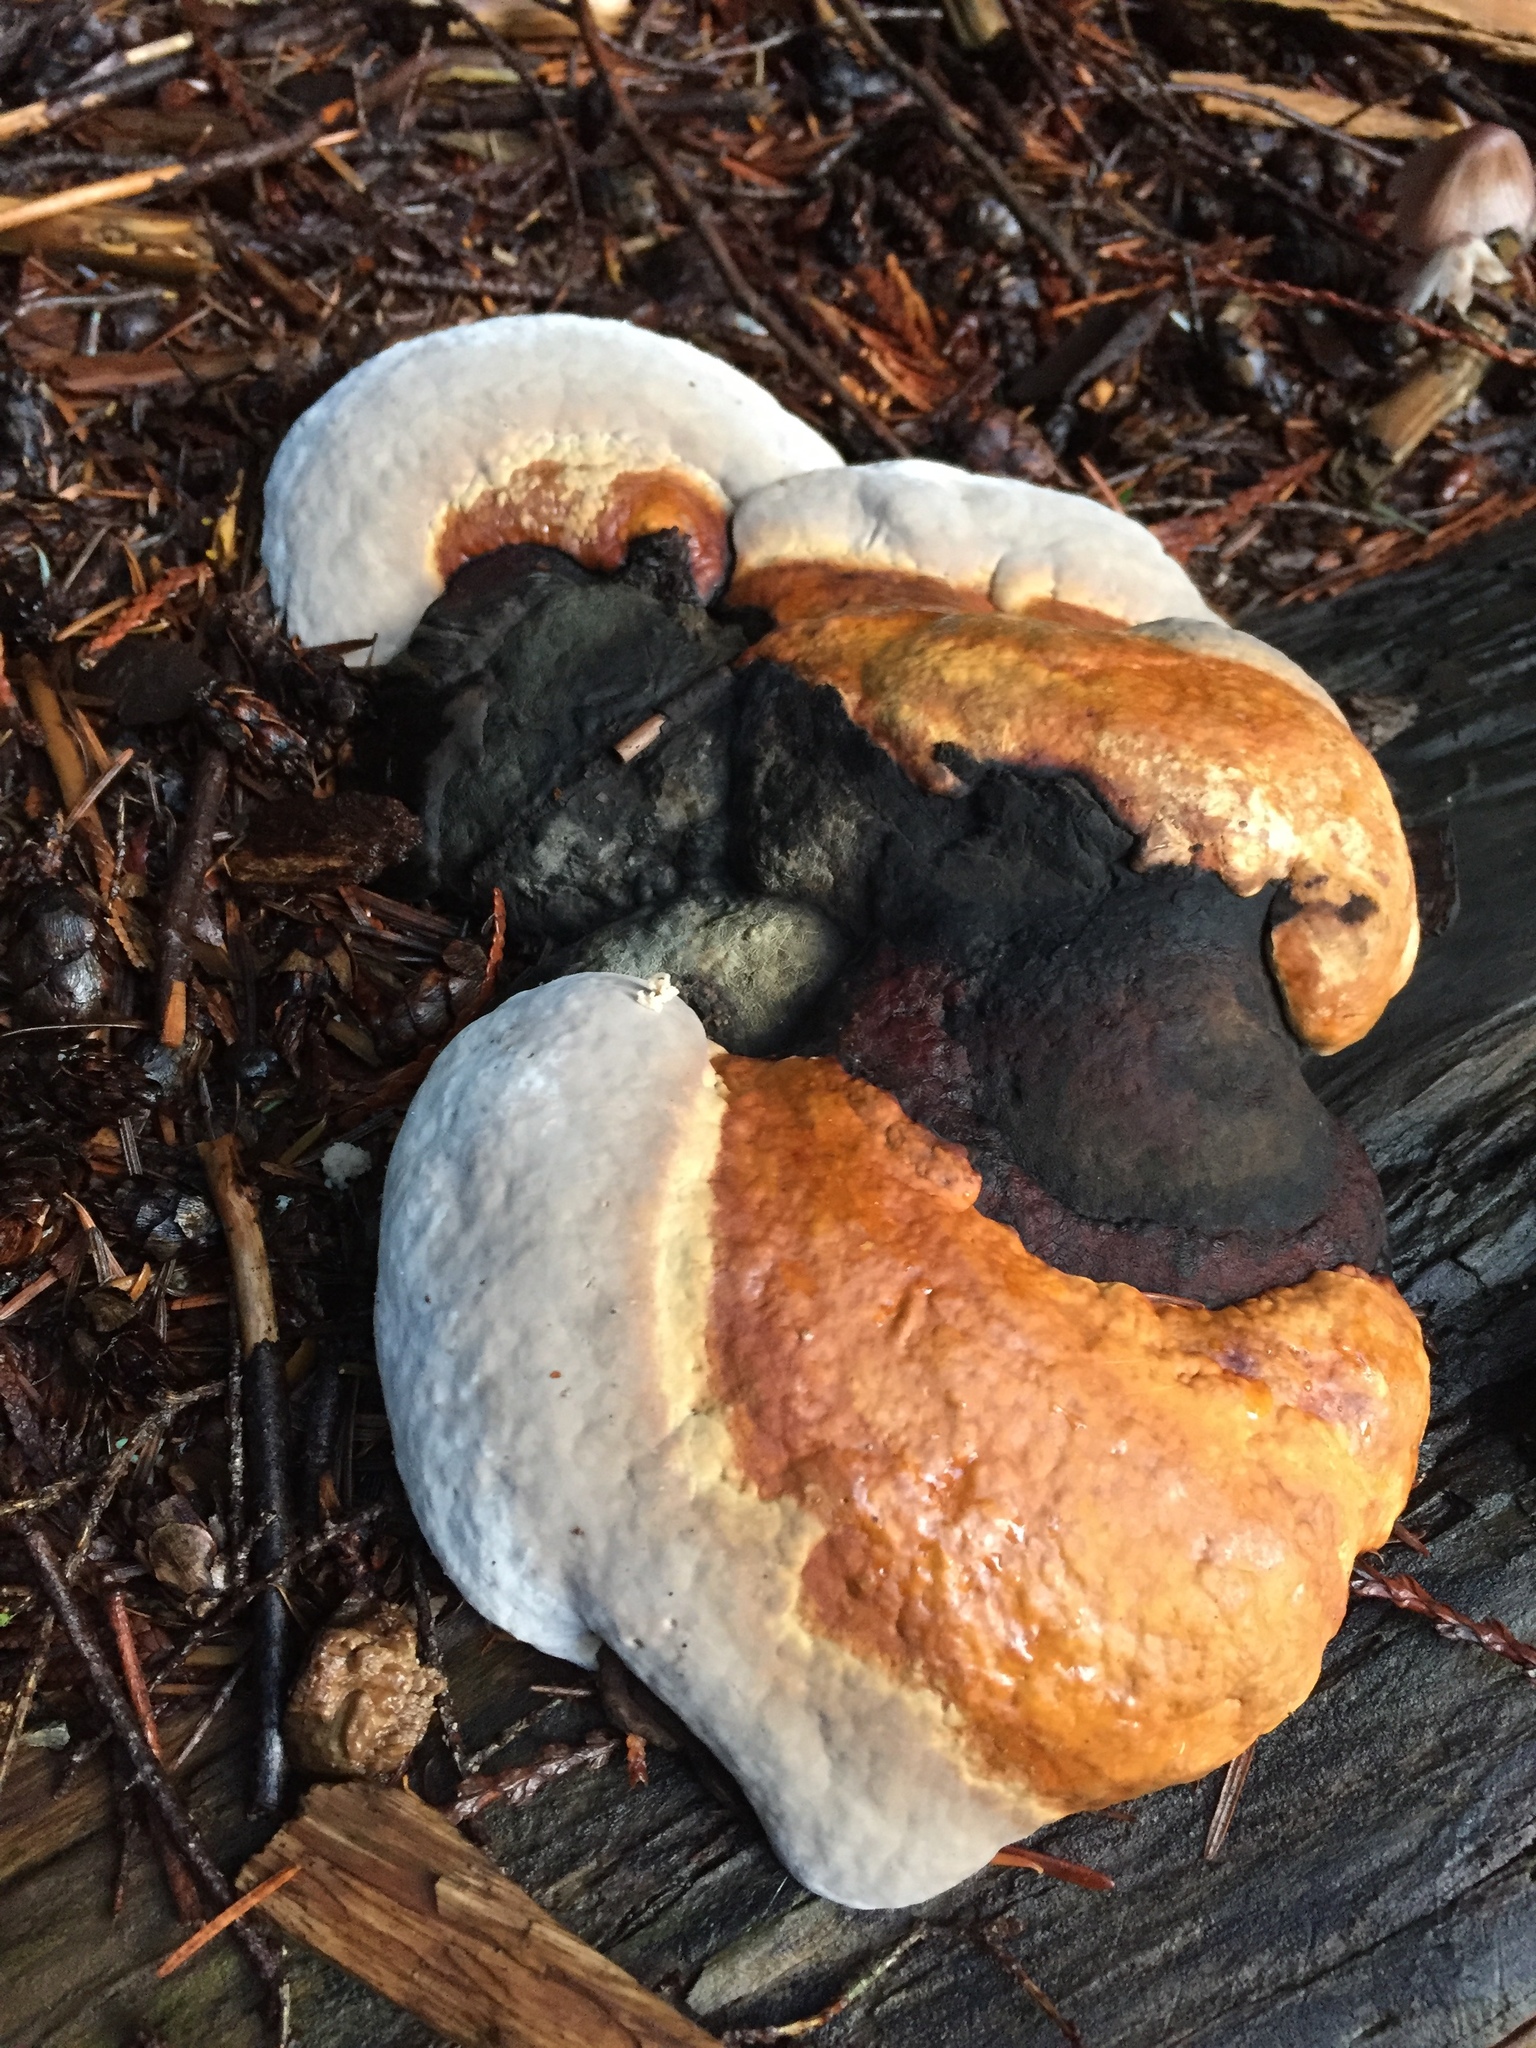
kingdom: Fungi
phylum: Basidiomycota
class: Agaricomycetes
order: Polyporales
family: Fomitopsidaceae
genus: Fomitopsis
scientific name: Fomitopsis mounceae
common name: Northern red belt
